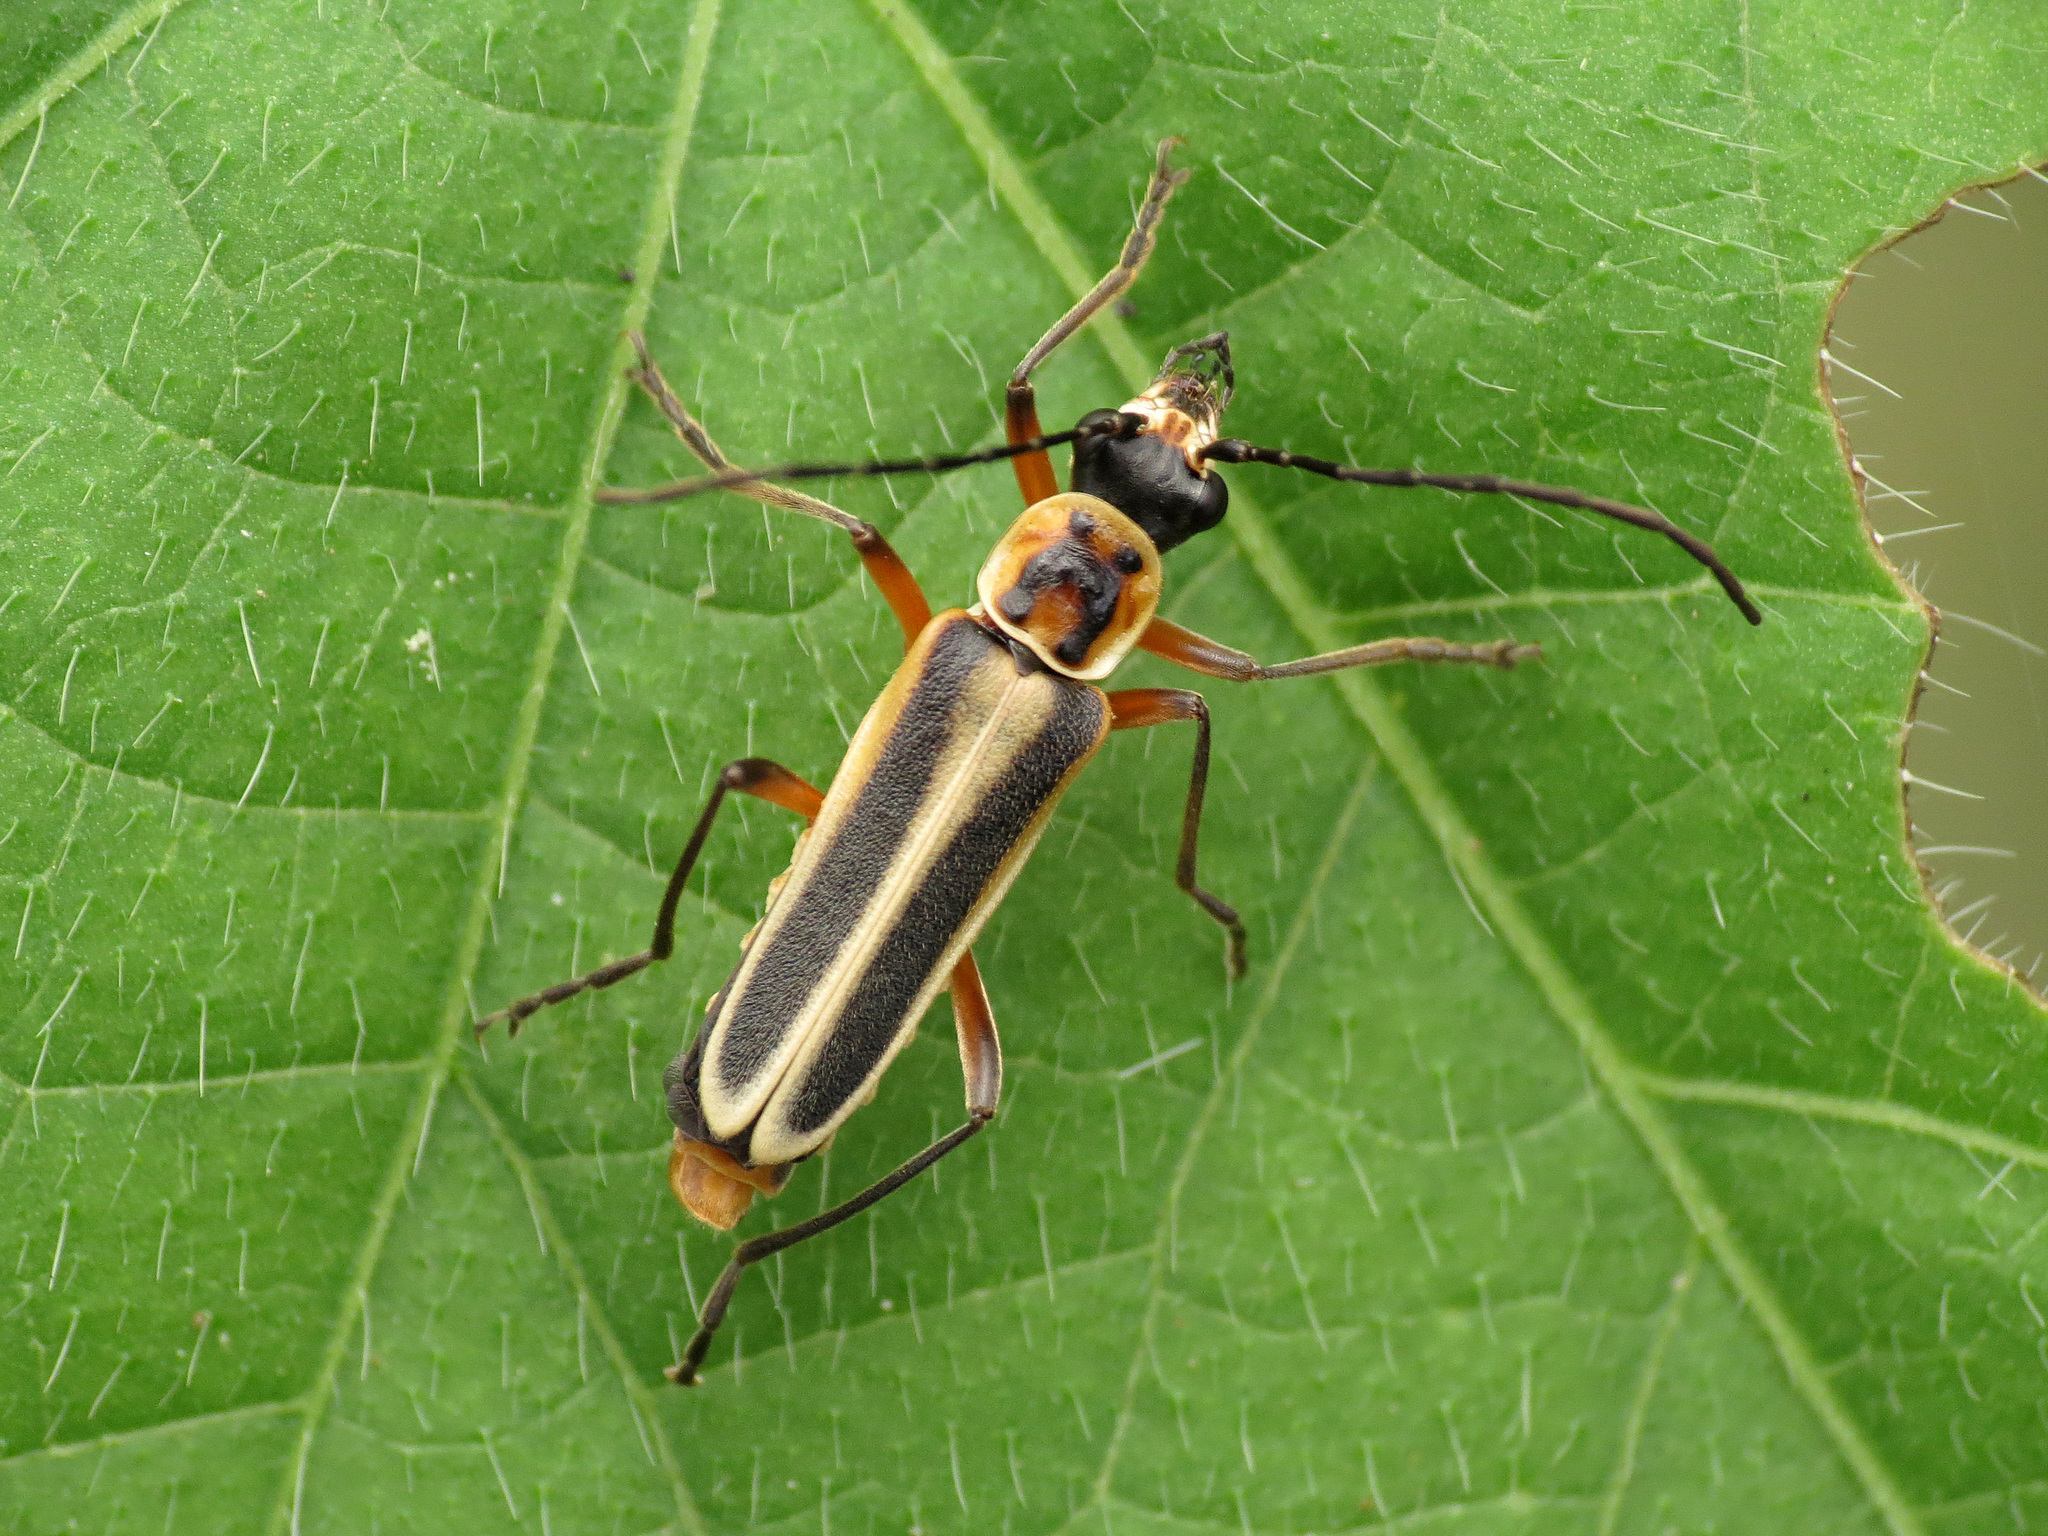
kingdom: Animalia
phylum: Arthropoda
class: Insecta
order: Coleoptera
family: Cantharidae
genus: Chauliognathus
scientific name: Chauliognathus lewisi
